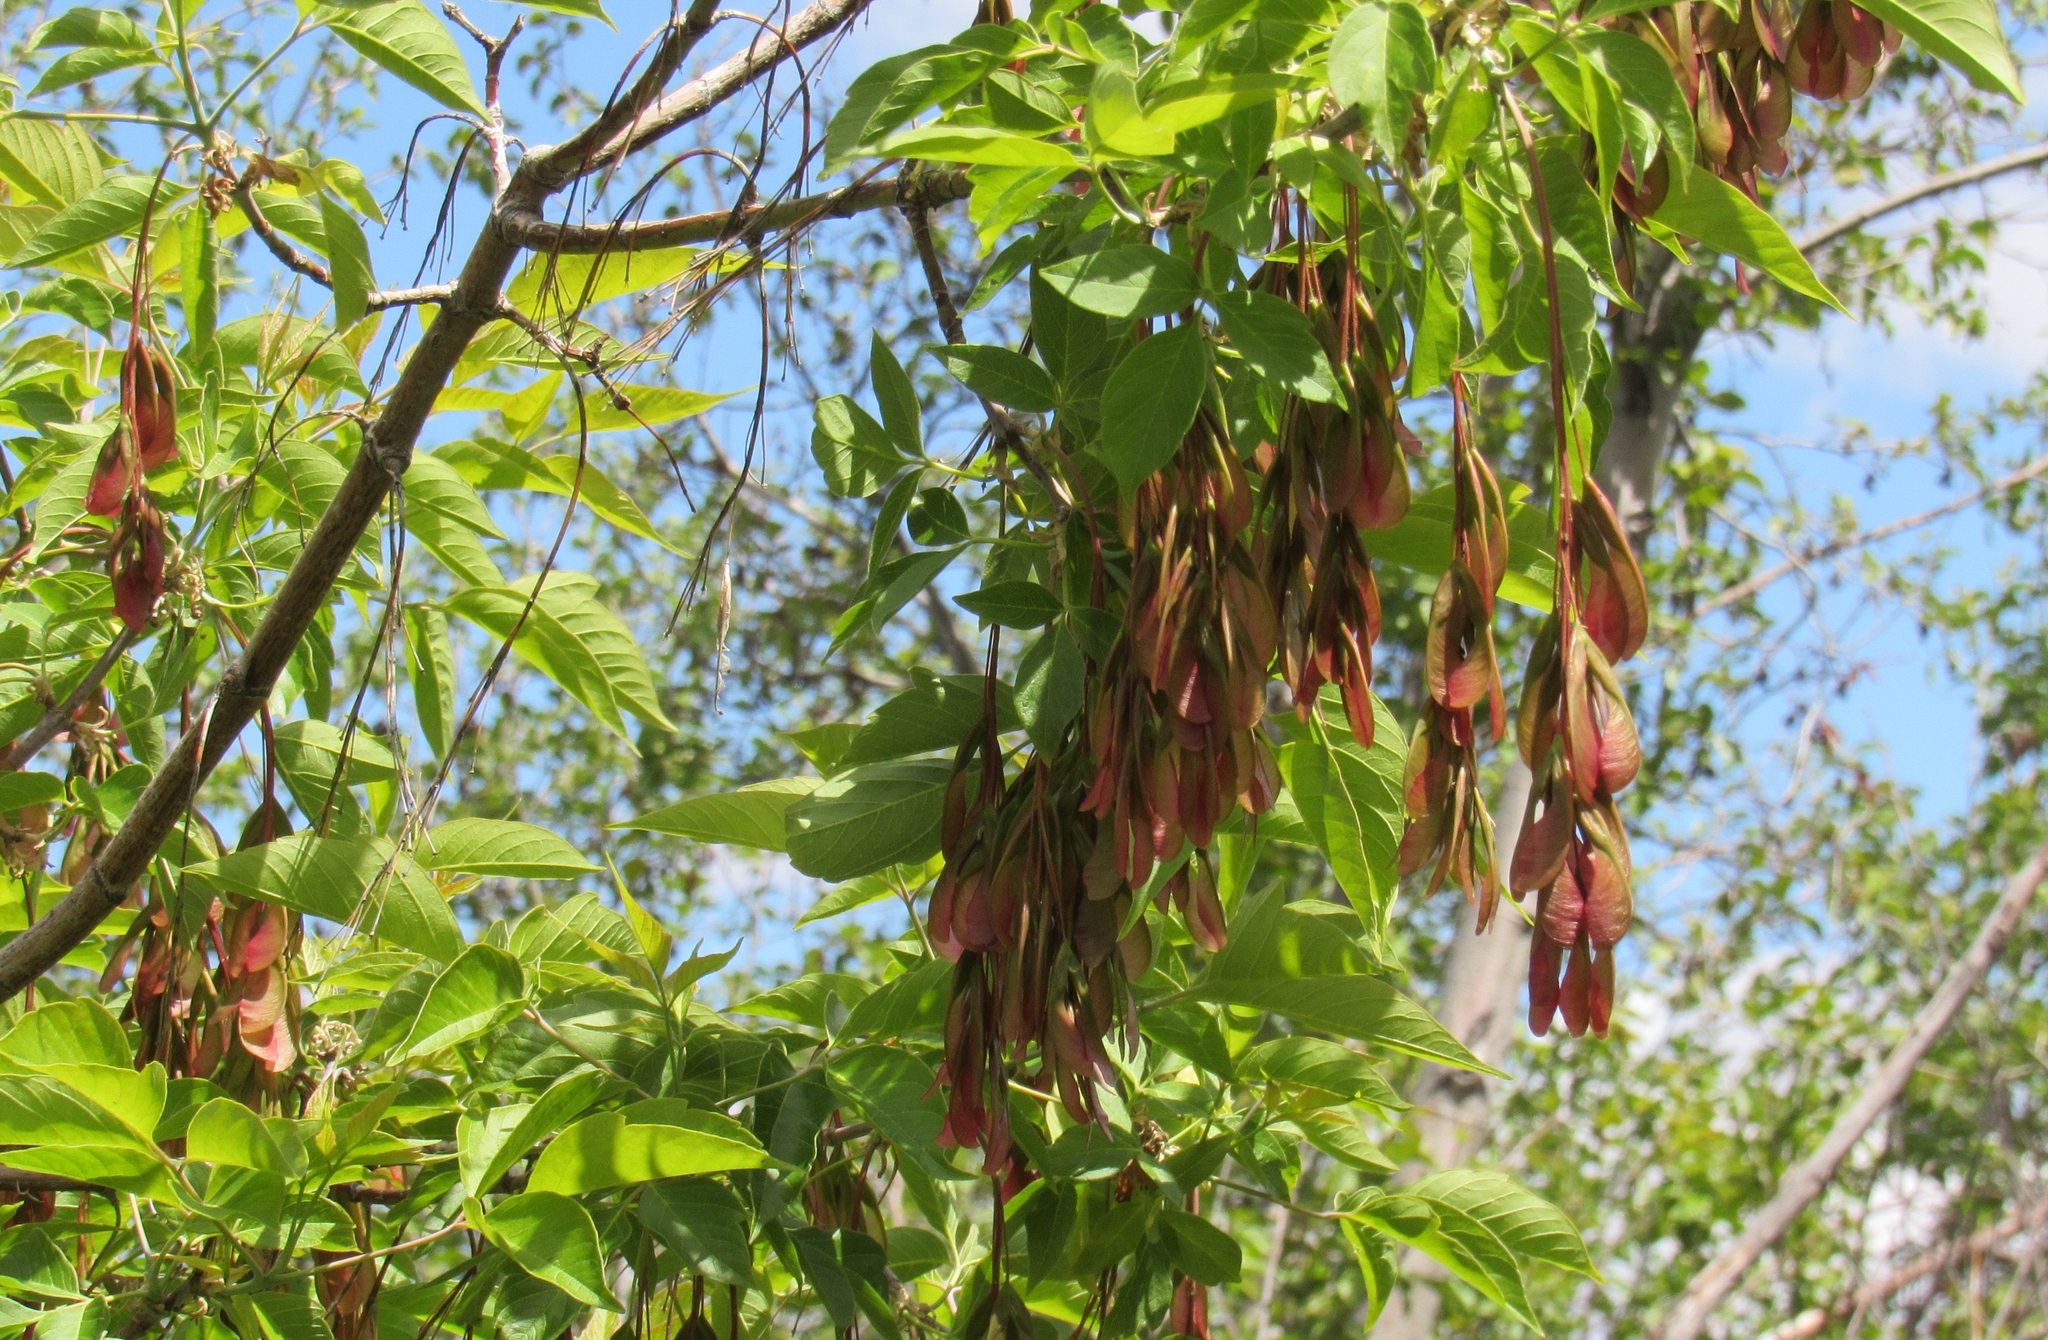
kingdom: Plantae
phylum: Tracheophyta
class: Magnoliopsida
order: Sapindales
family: Sapindaceae
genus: Acer
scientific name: Acer negundo
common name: Ashleaf maple
